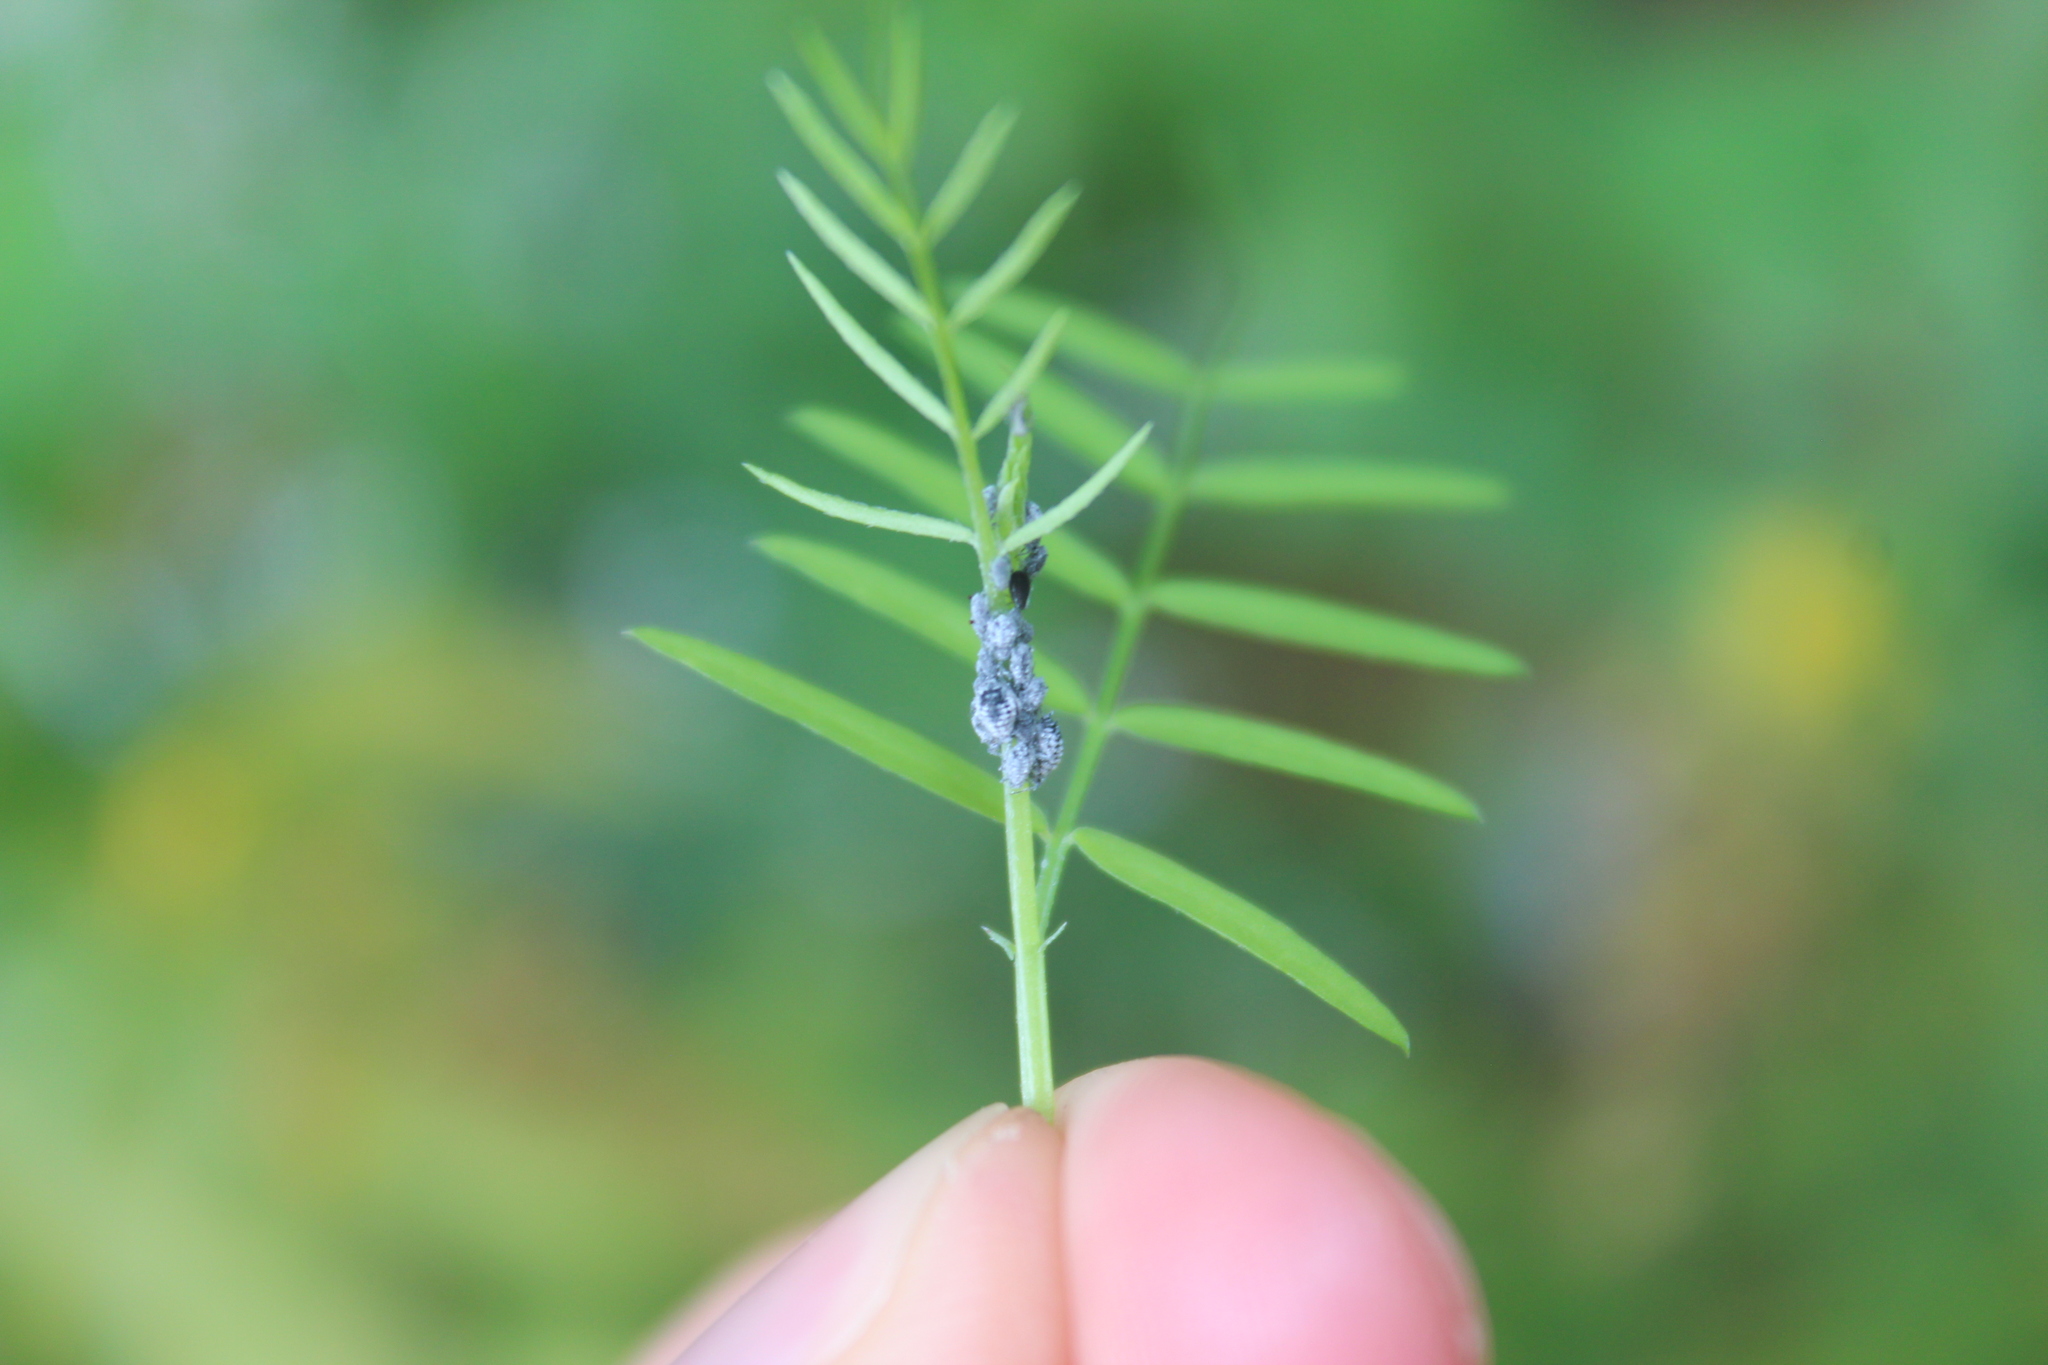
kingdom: Animalia
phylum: Arthropoda
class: Insecta
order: Hemiptera
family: Aphididae
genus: Aphis
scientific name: Aphis craccae
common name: Aphid
